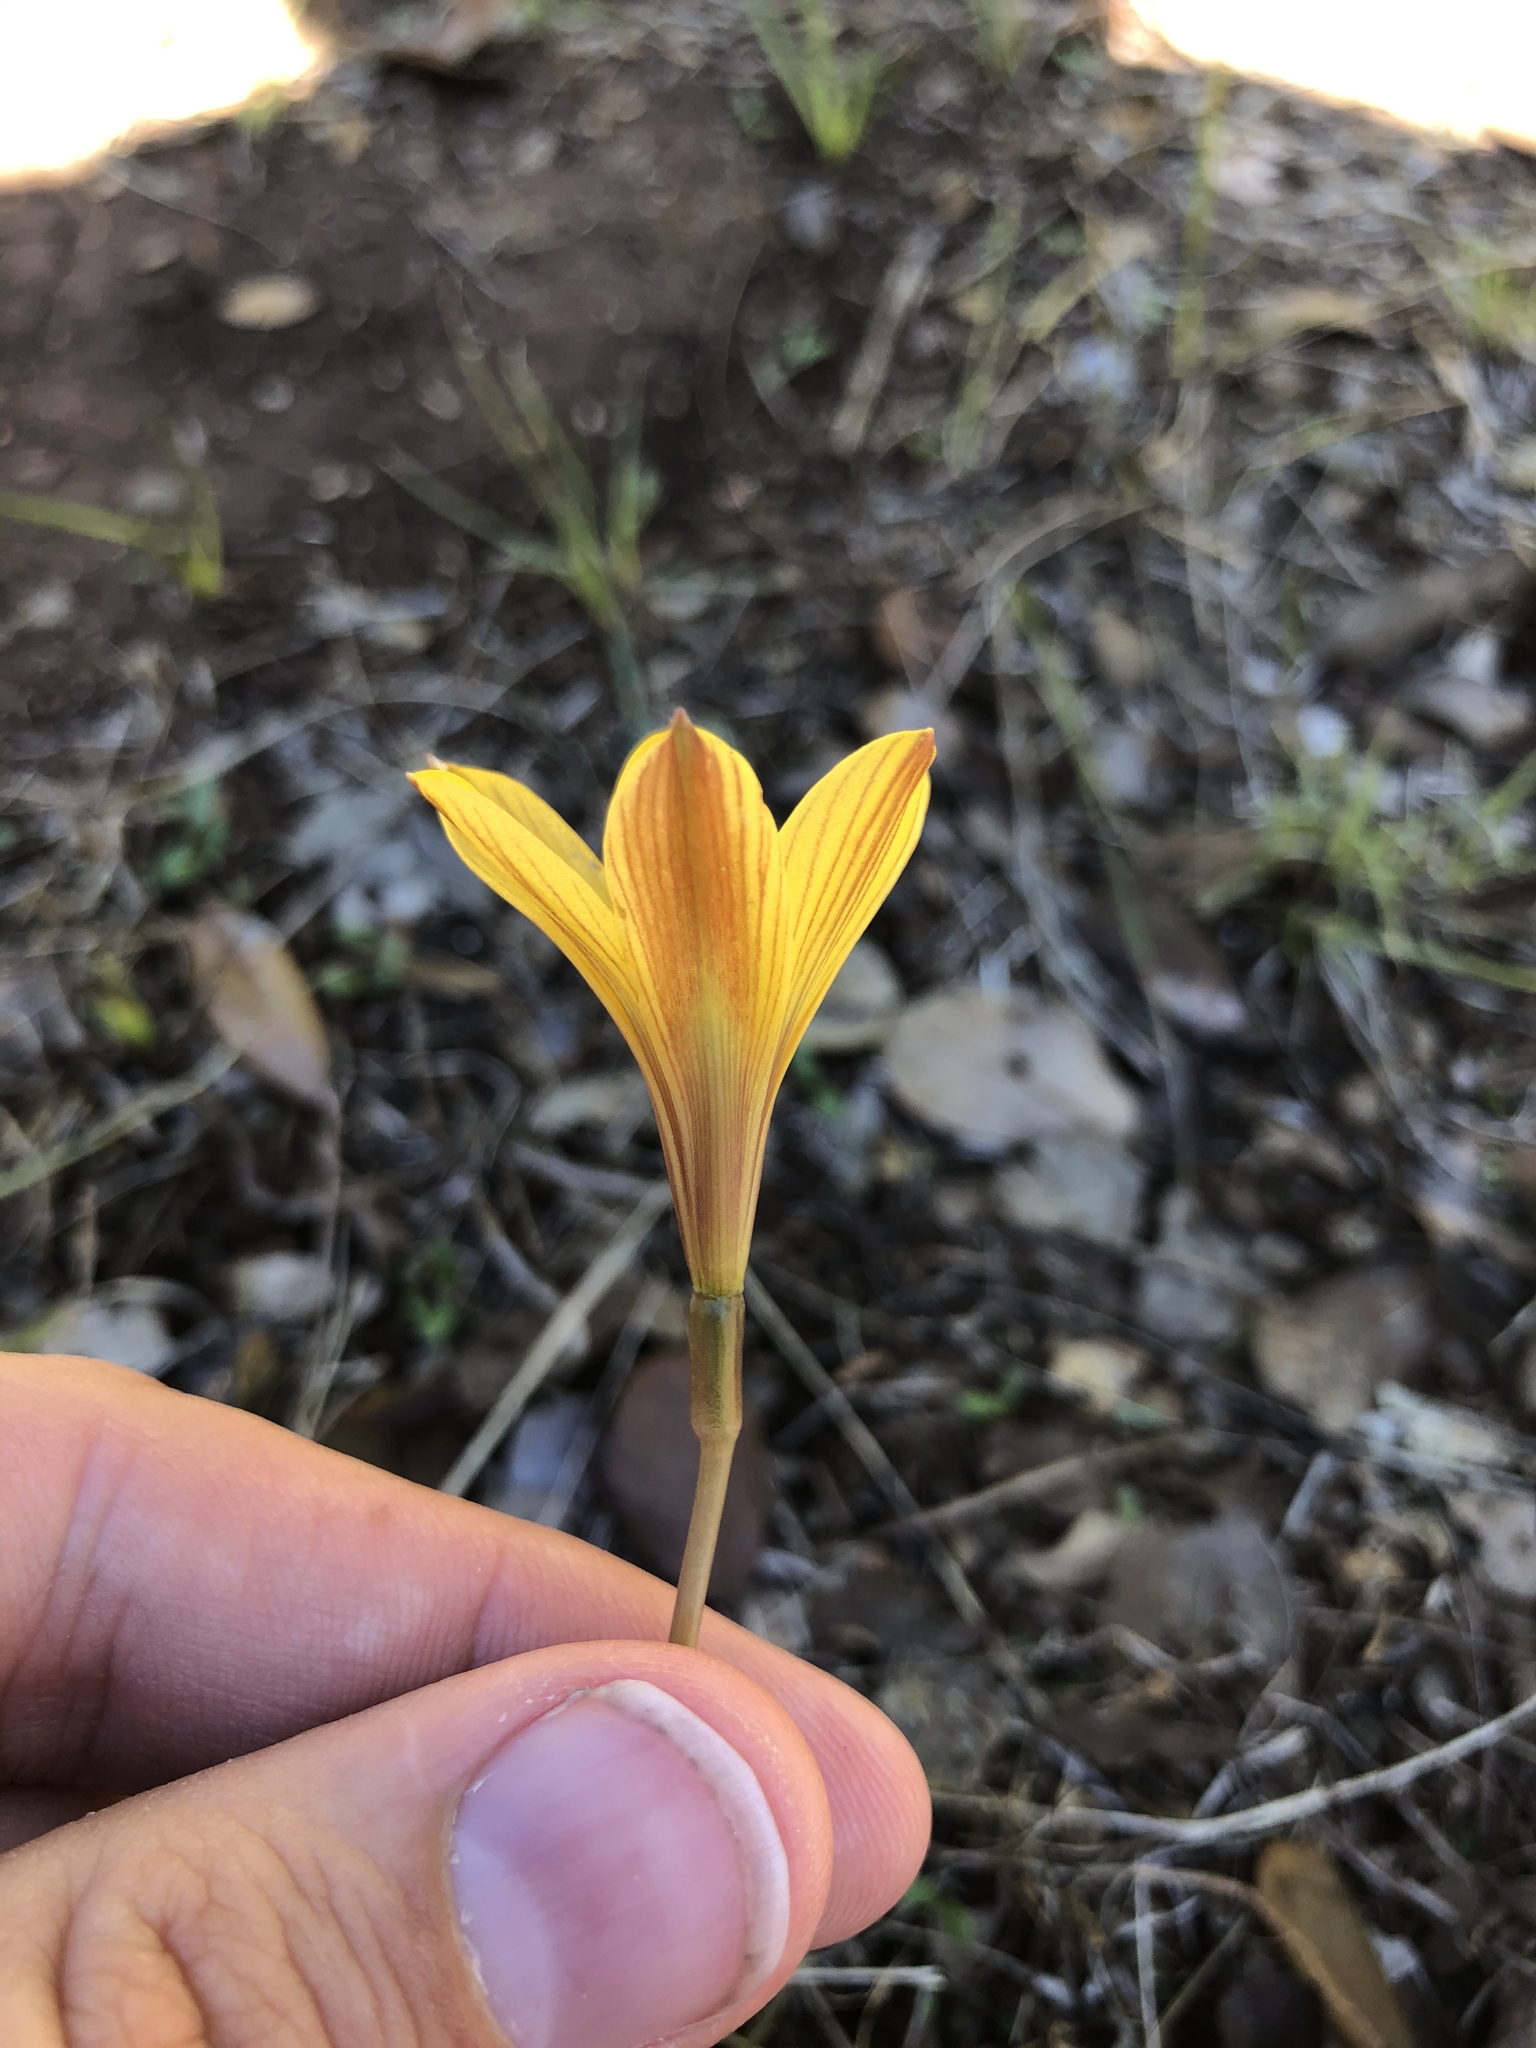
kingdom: Plantae
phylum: Tracheophyta
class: Liliopsida
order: Asparagales
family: Amaryllidaceae
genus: Zephyranthes
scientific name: Zephyranthes tubispatha
